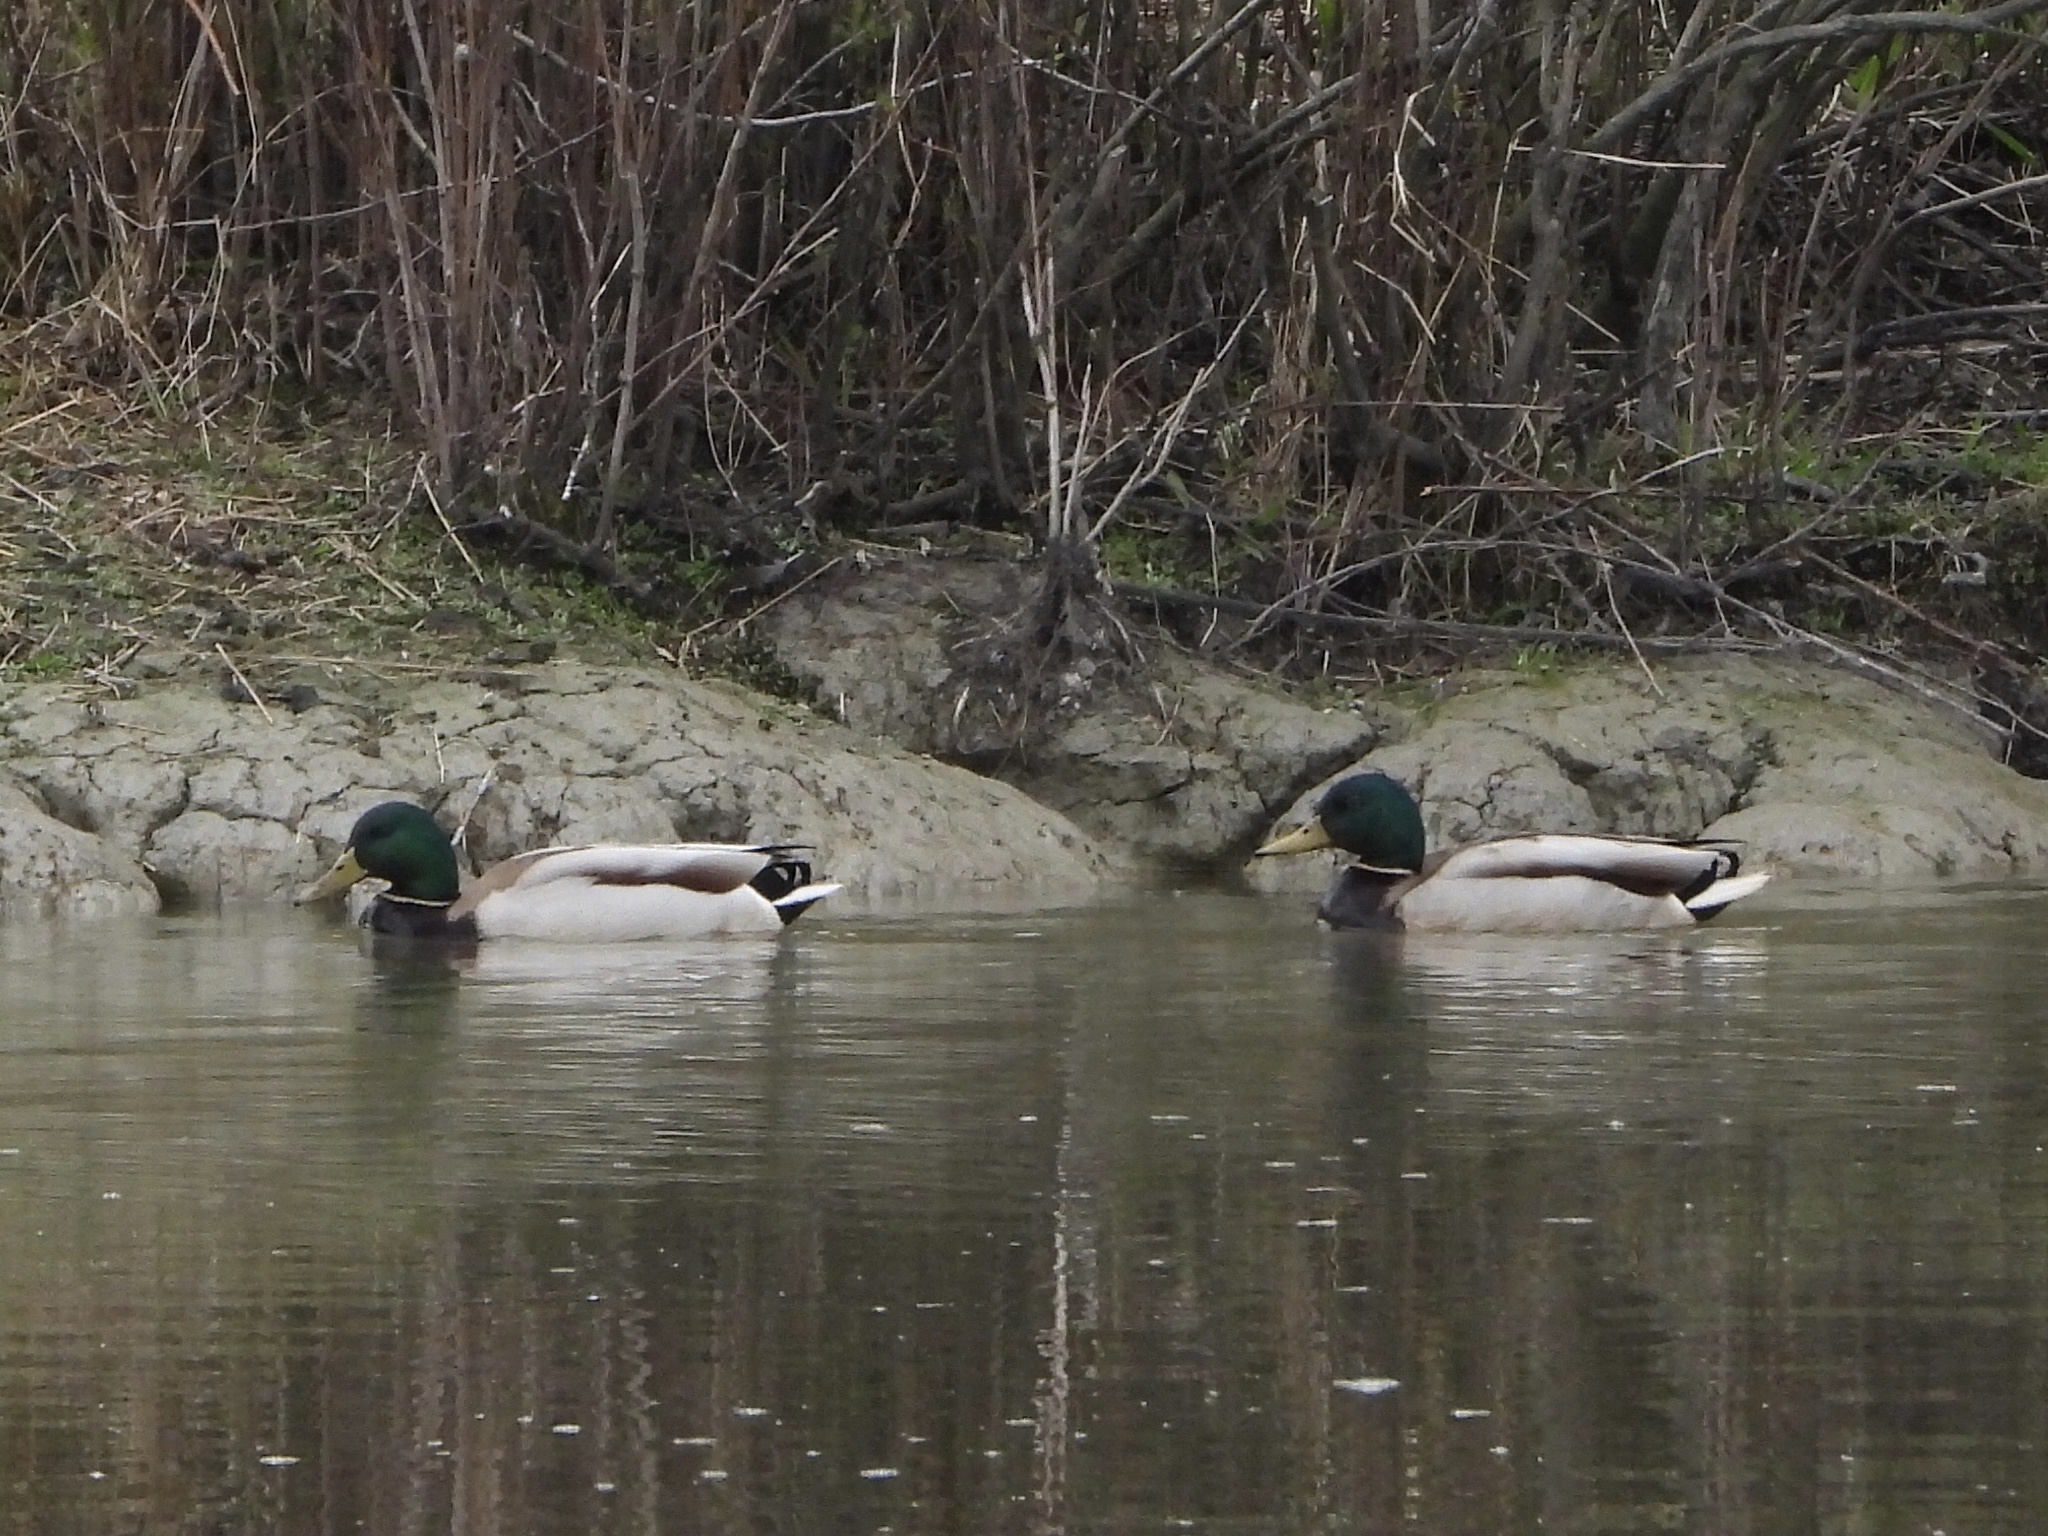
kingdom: Animalia
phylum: Chordata
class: Aves
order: Anseriformes
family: Anatidae
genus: Anas
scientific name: Anas platyrhynchos
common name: Mallard
